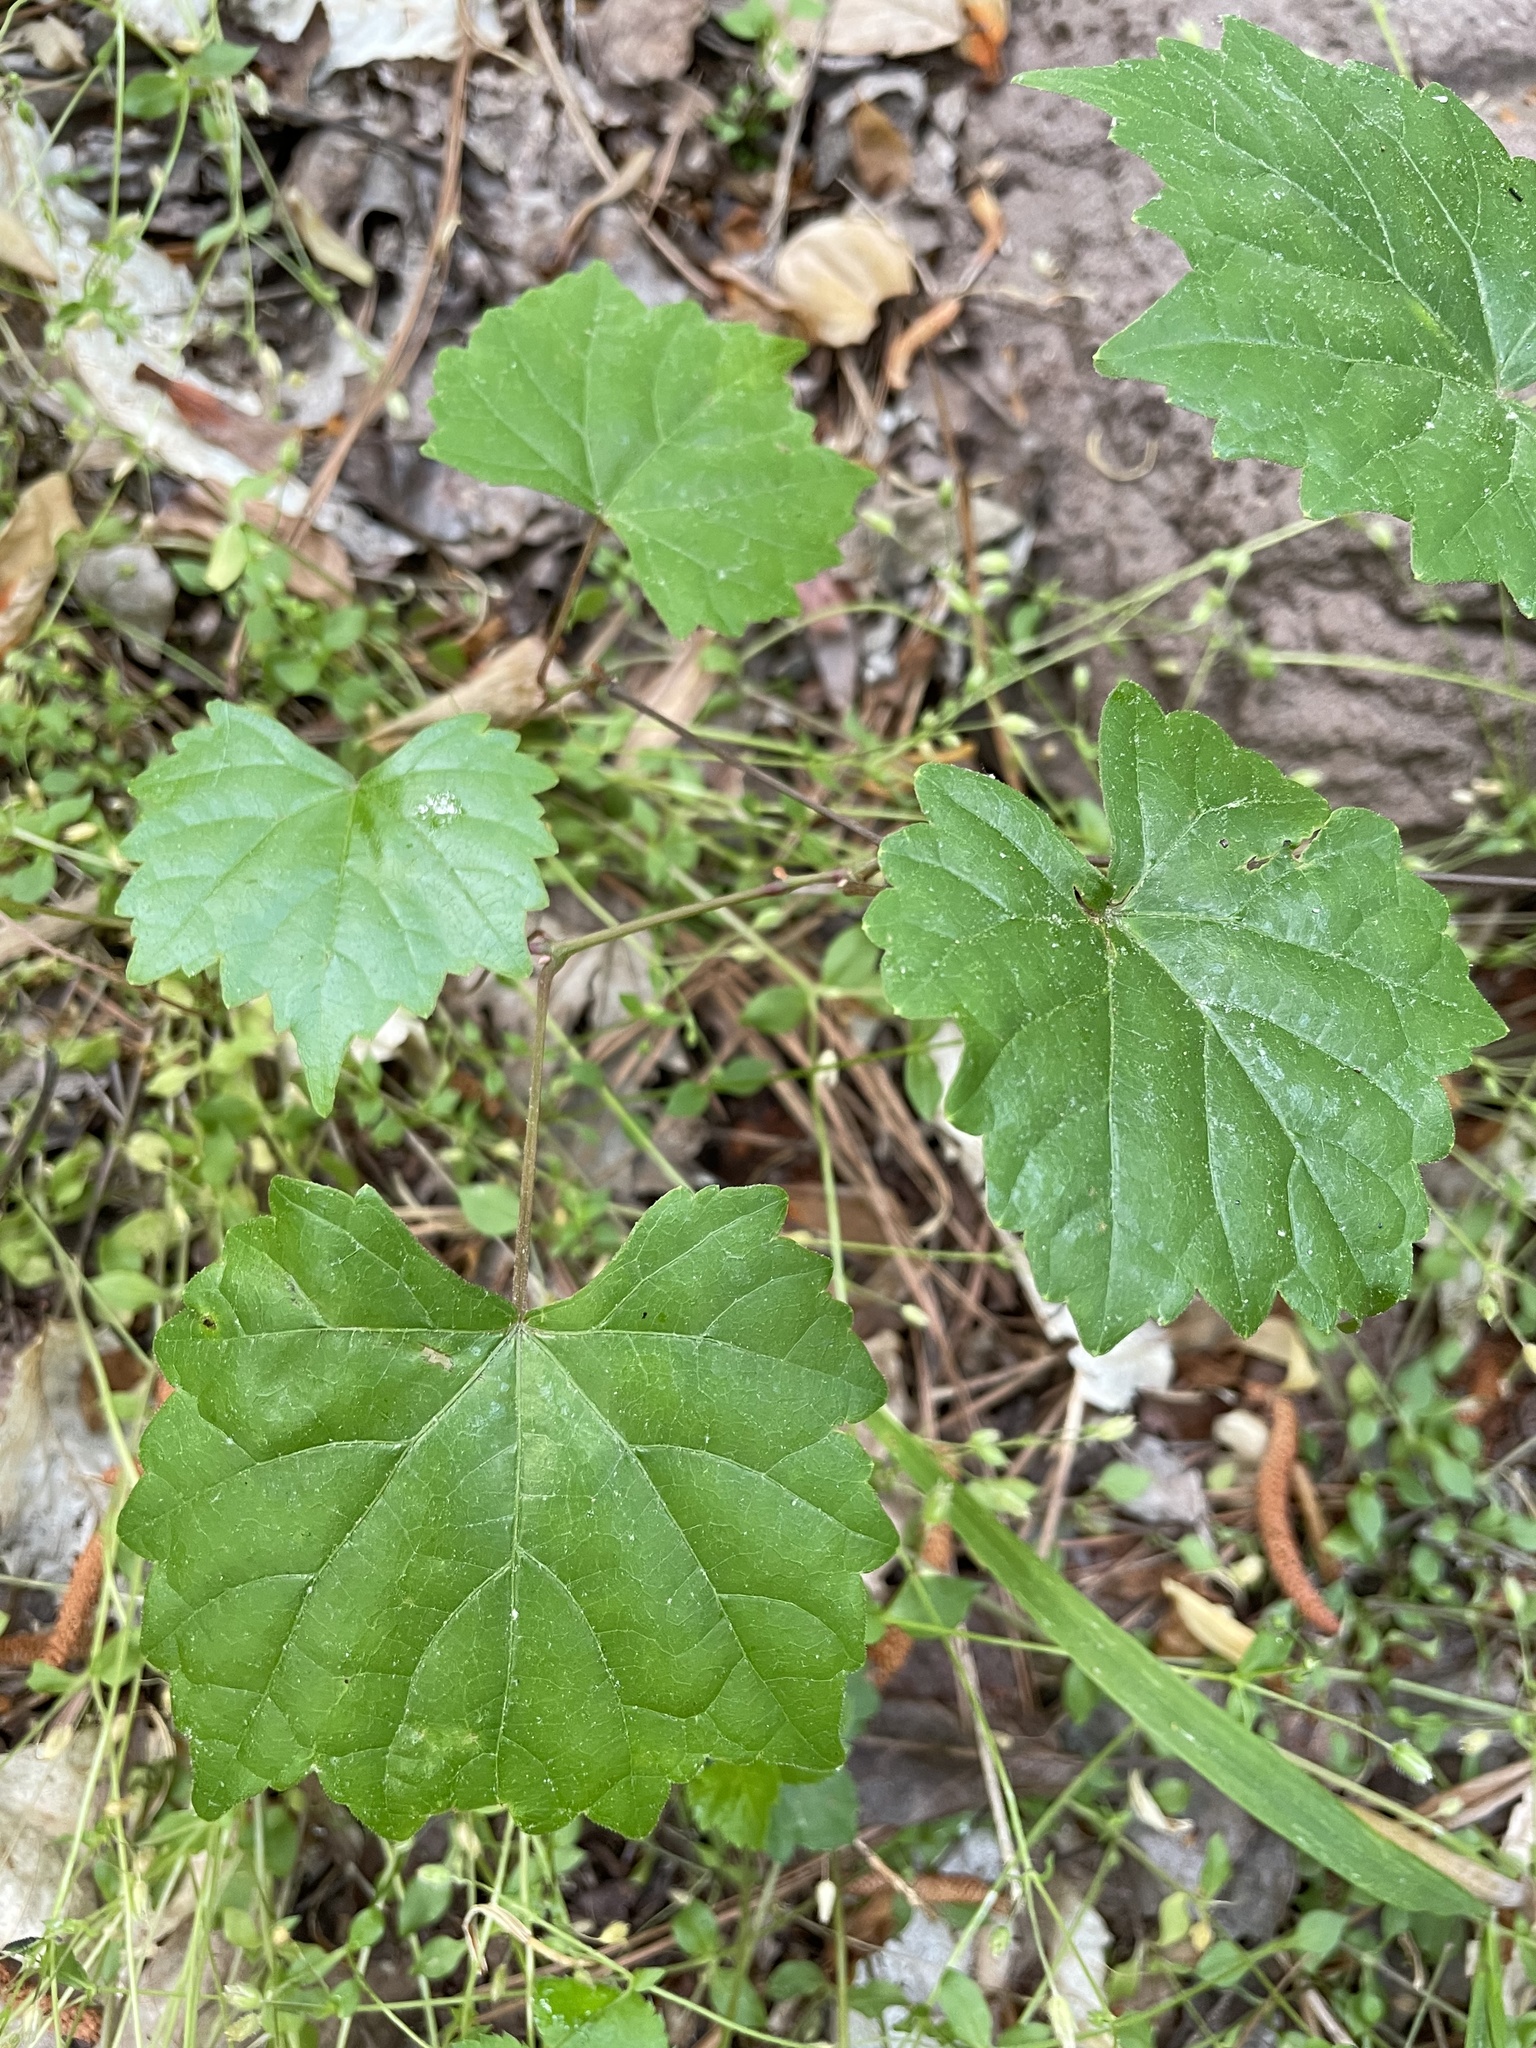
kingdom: Plantae
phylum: Tracheophyta
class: Magnoliopsida
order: Vitales
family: Vitaceae
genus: Vitis
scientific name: Vitis rotundifolia
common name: Muscadine grape
